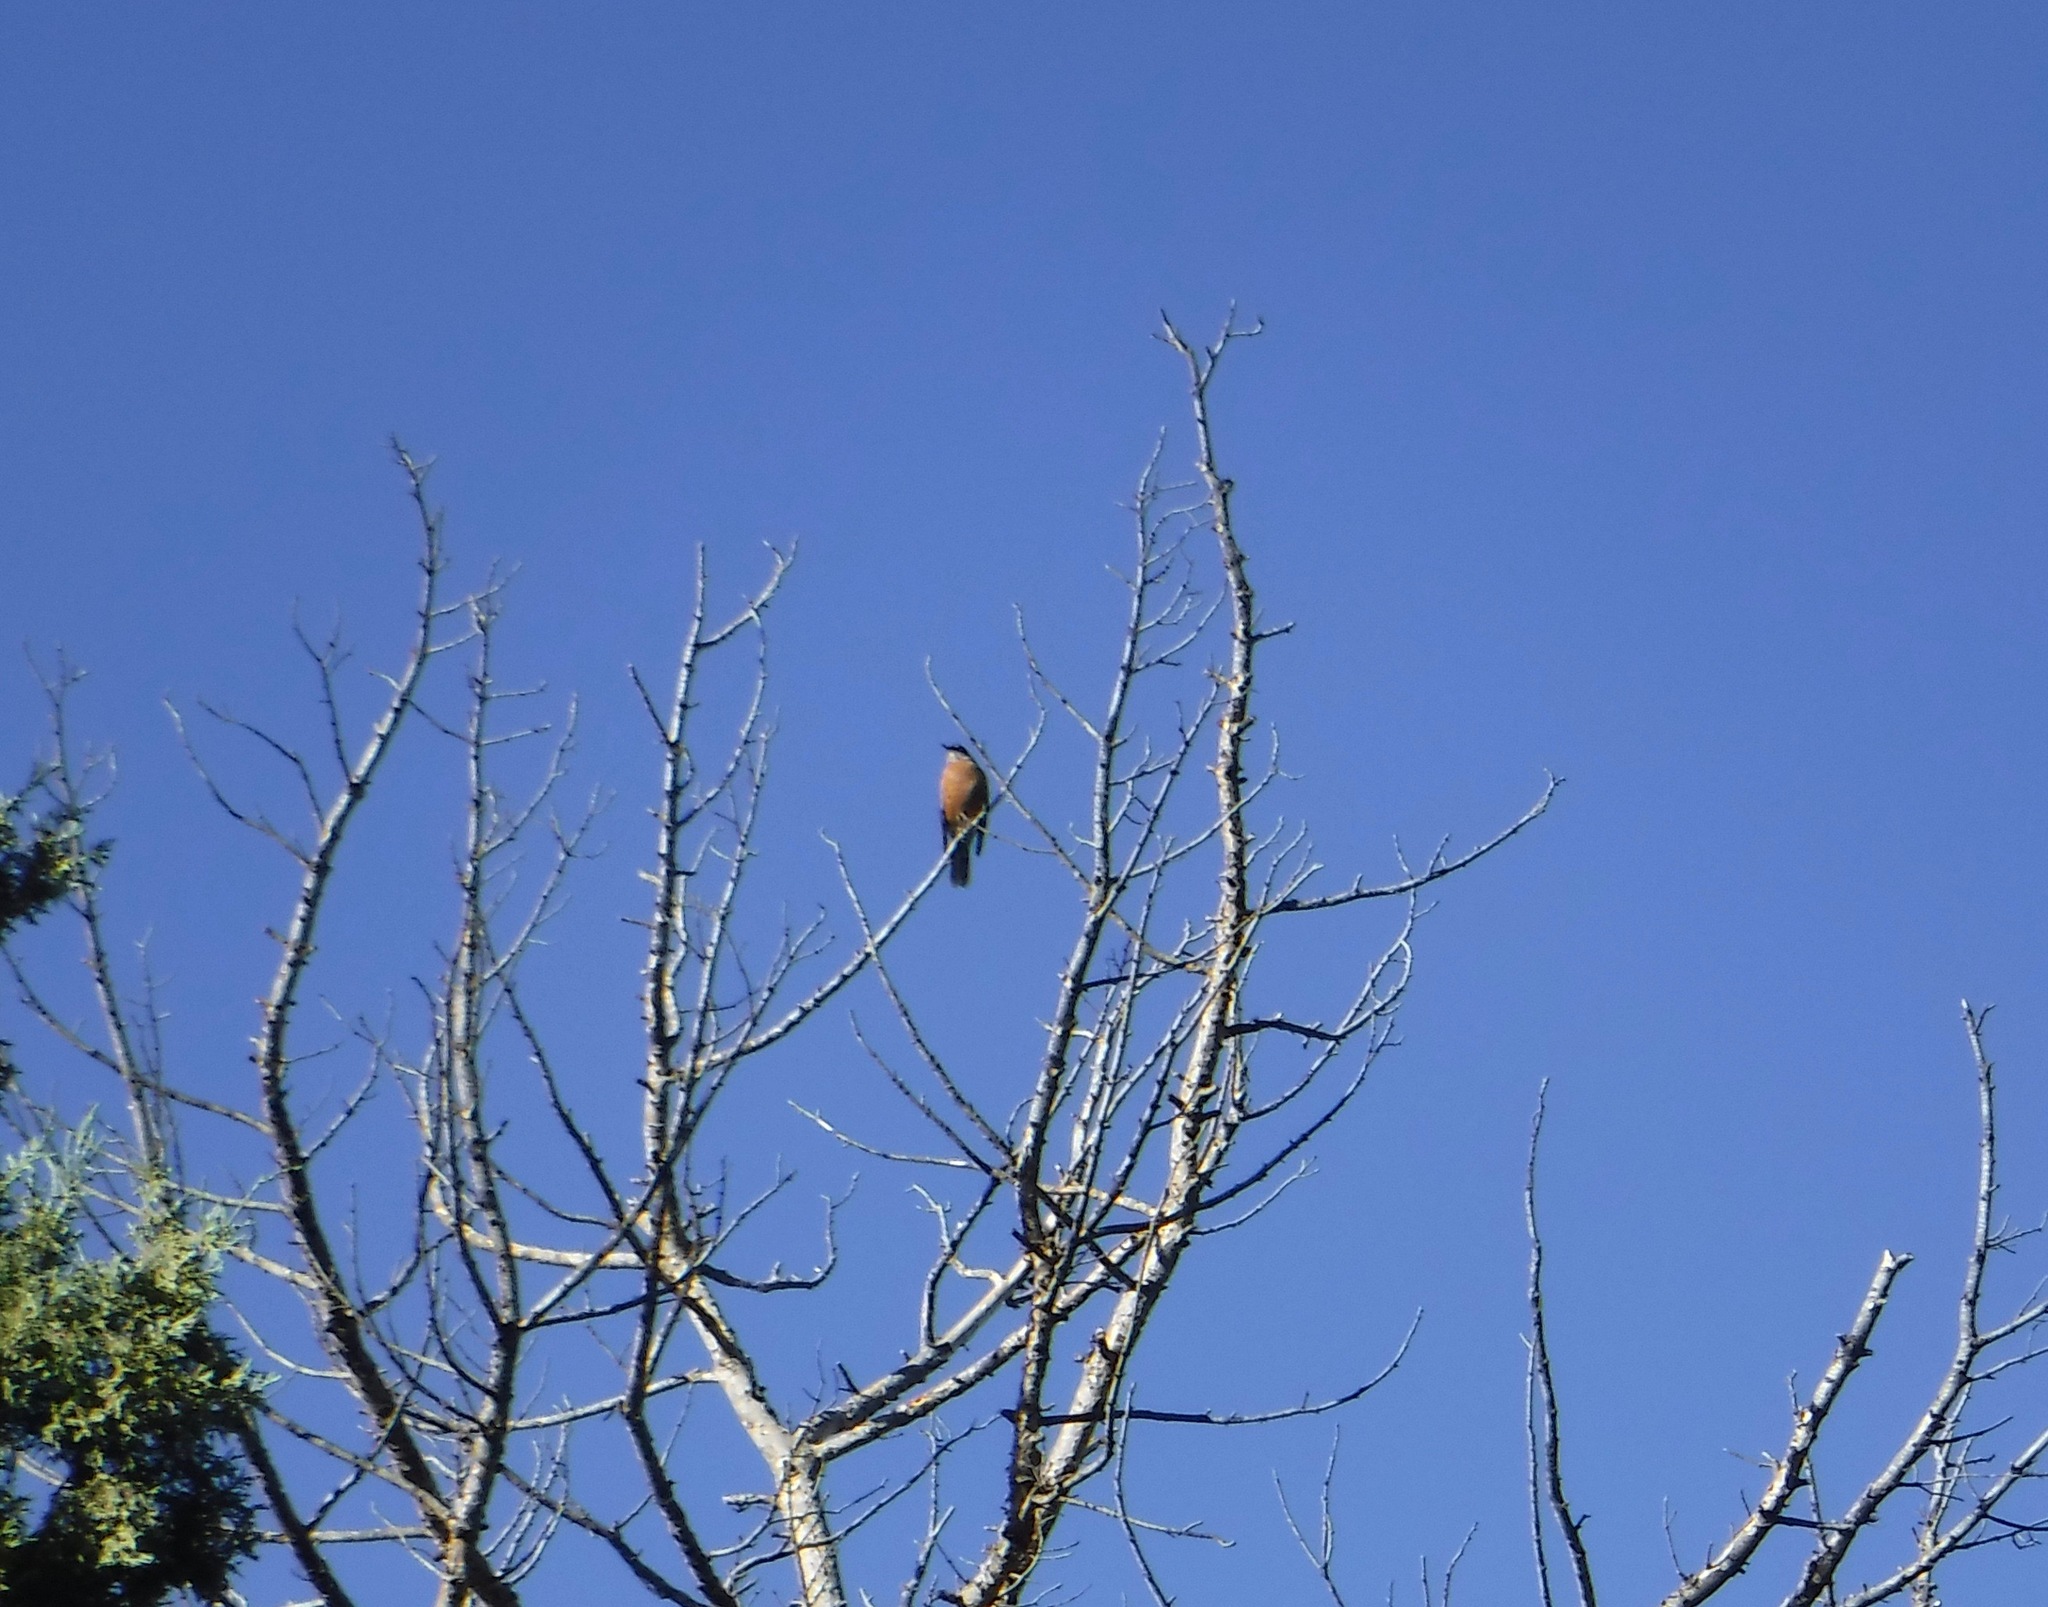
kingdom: Animalia
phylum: Chordata
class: Aves
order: Passeriformes
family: Turdidae
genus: Turdus
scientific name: Turdus migratorius
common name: American robin
